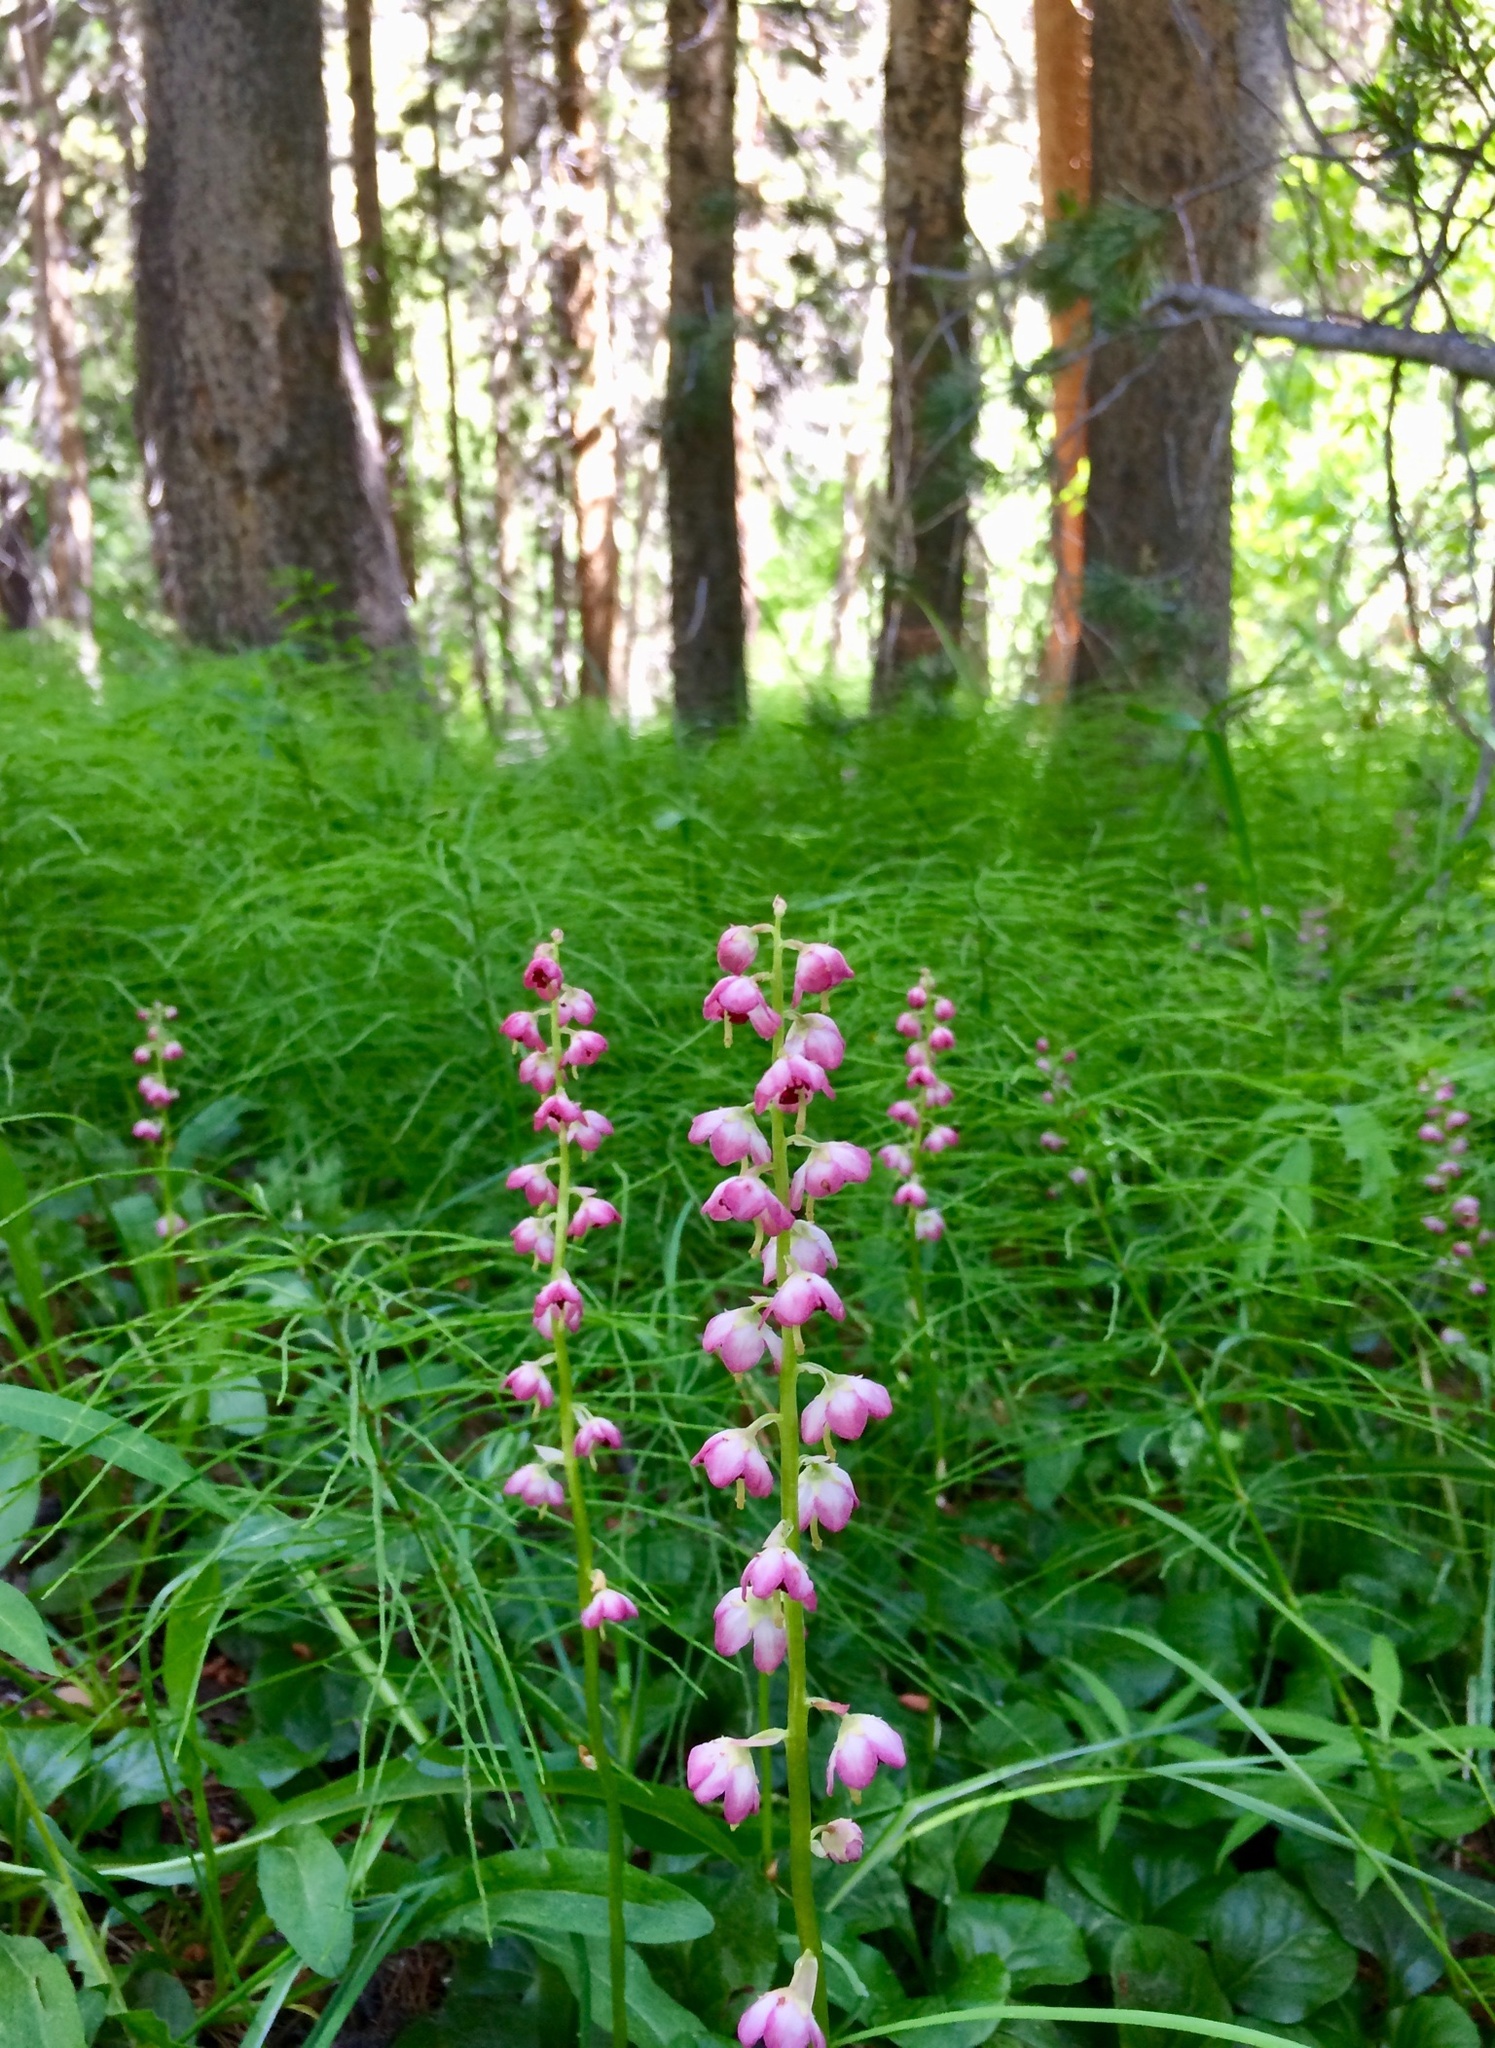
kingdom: Plantae
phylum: Tracheophyta
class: Magnoliopsida
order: Ericales
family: Ericaceae
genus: Pyrola
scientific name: Pyrola asarifolia
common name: Bog wintergreen
